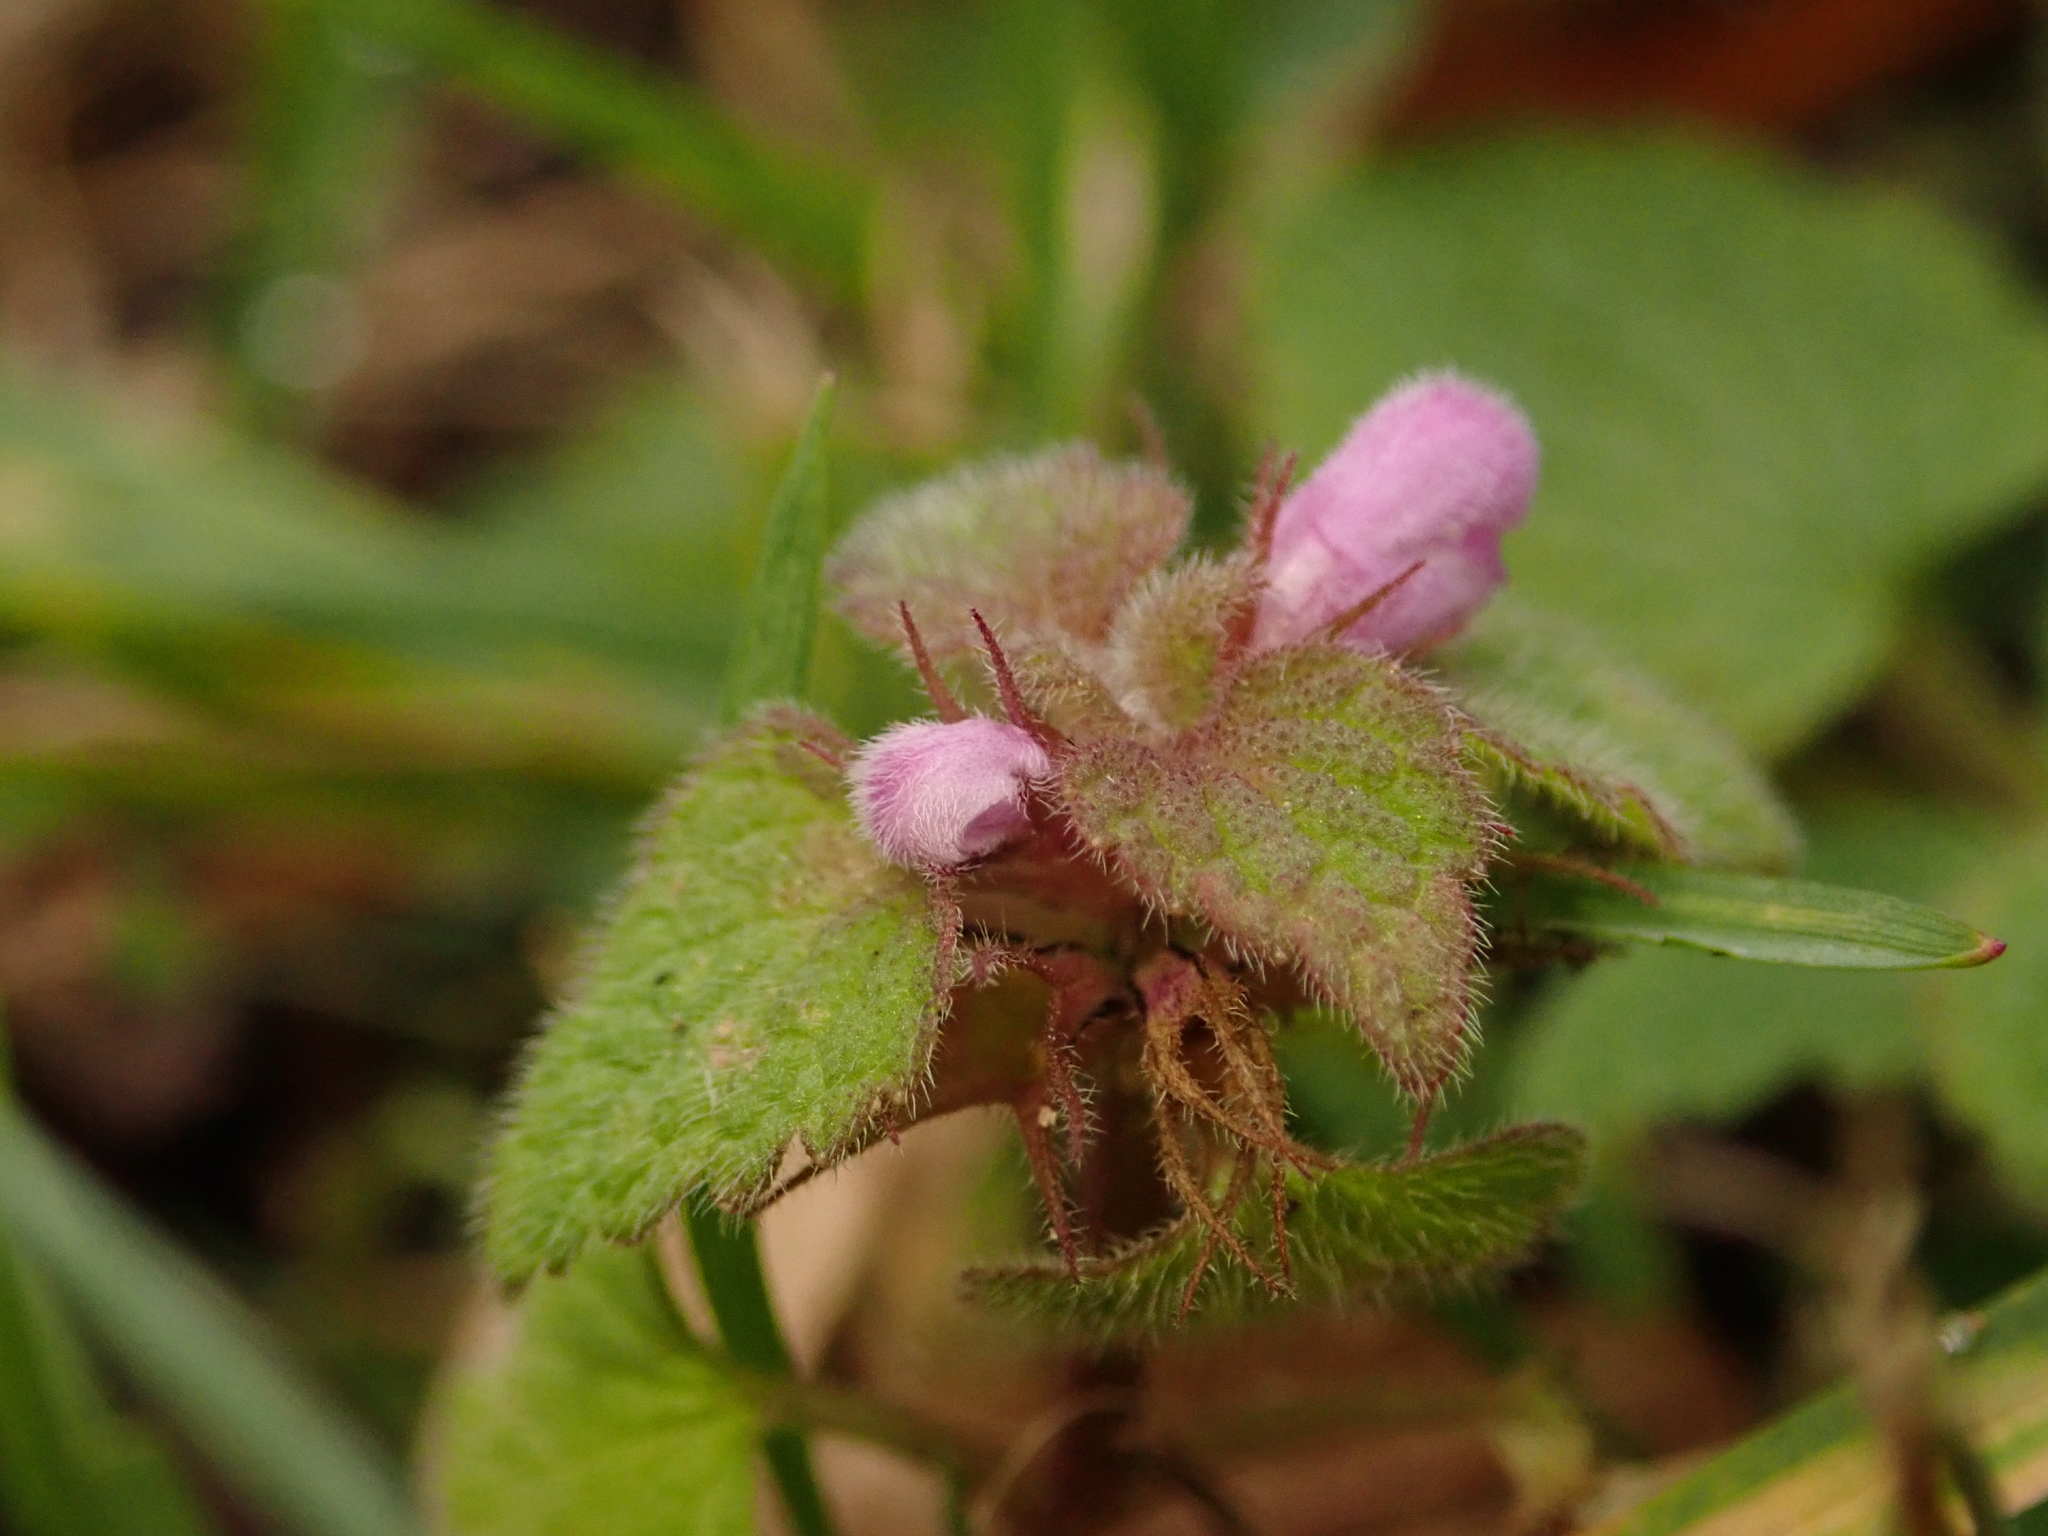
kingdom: Plantae
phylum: Tracheophyta
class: Magnoliopsida
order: Lamiales
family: Lamiaceae
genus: Lamium
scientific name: Lamium purpureum
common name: Red dead-nettle
